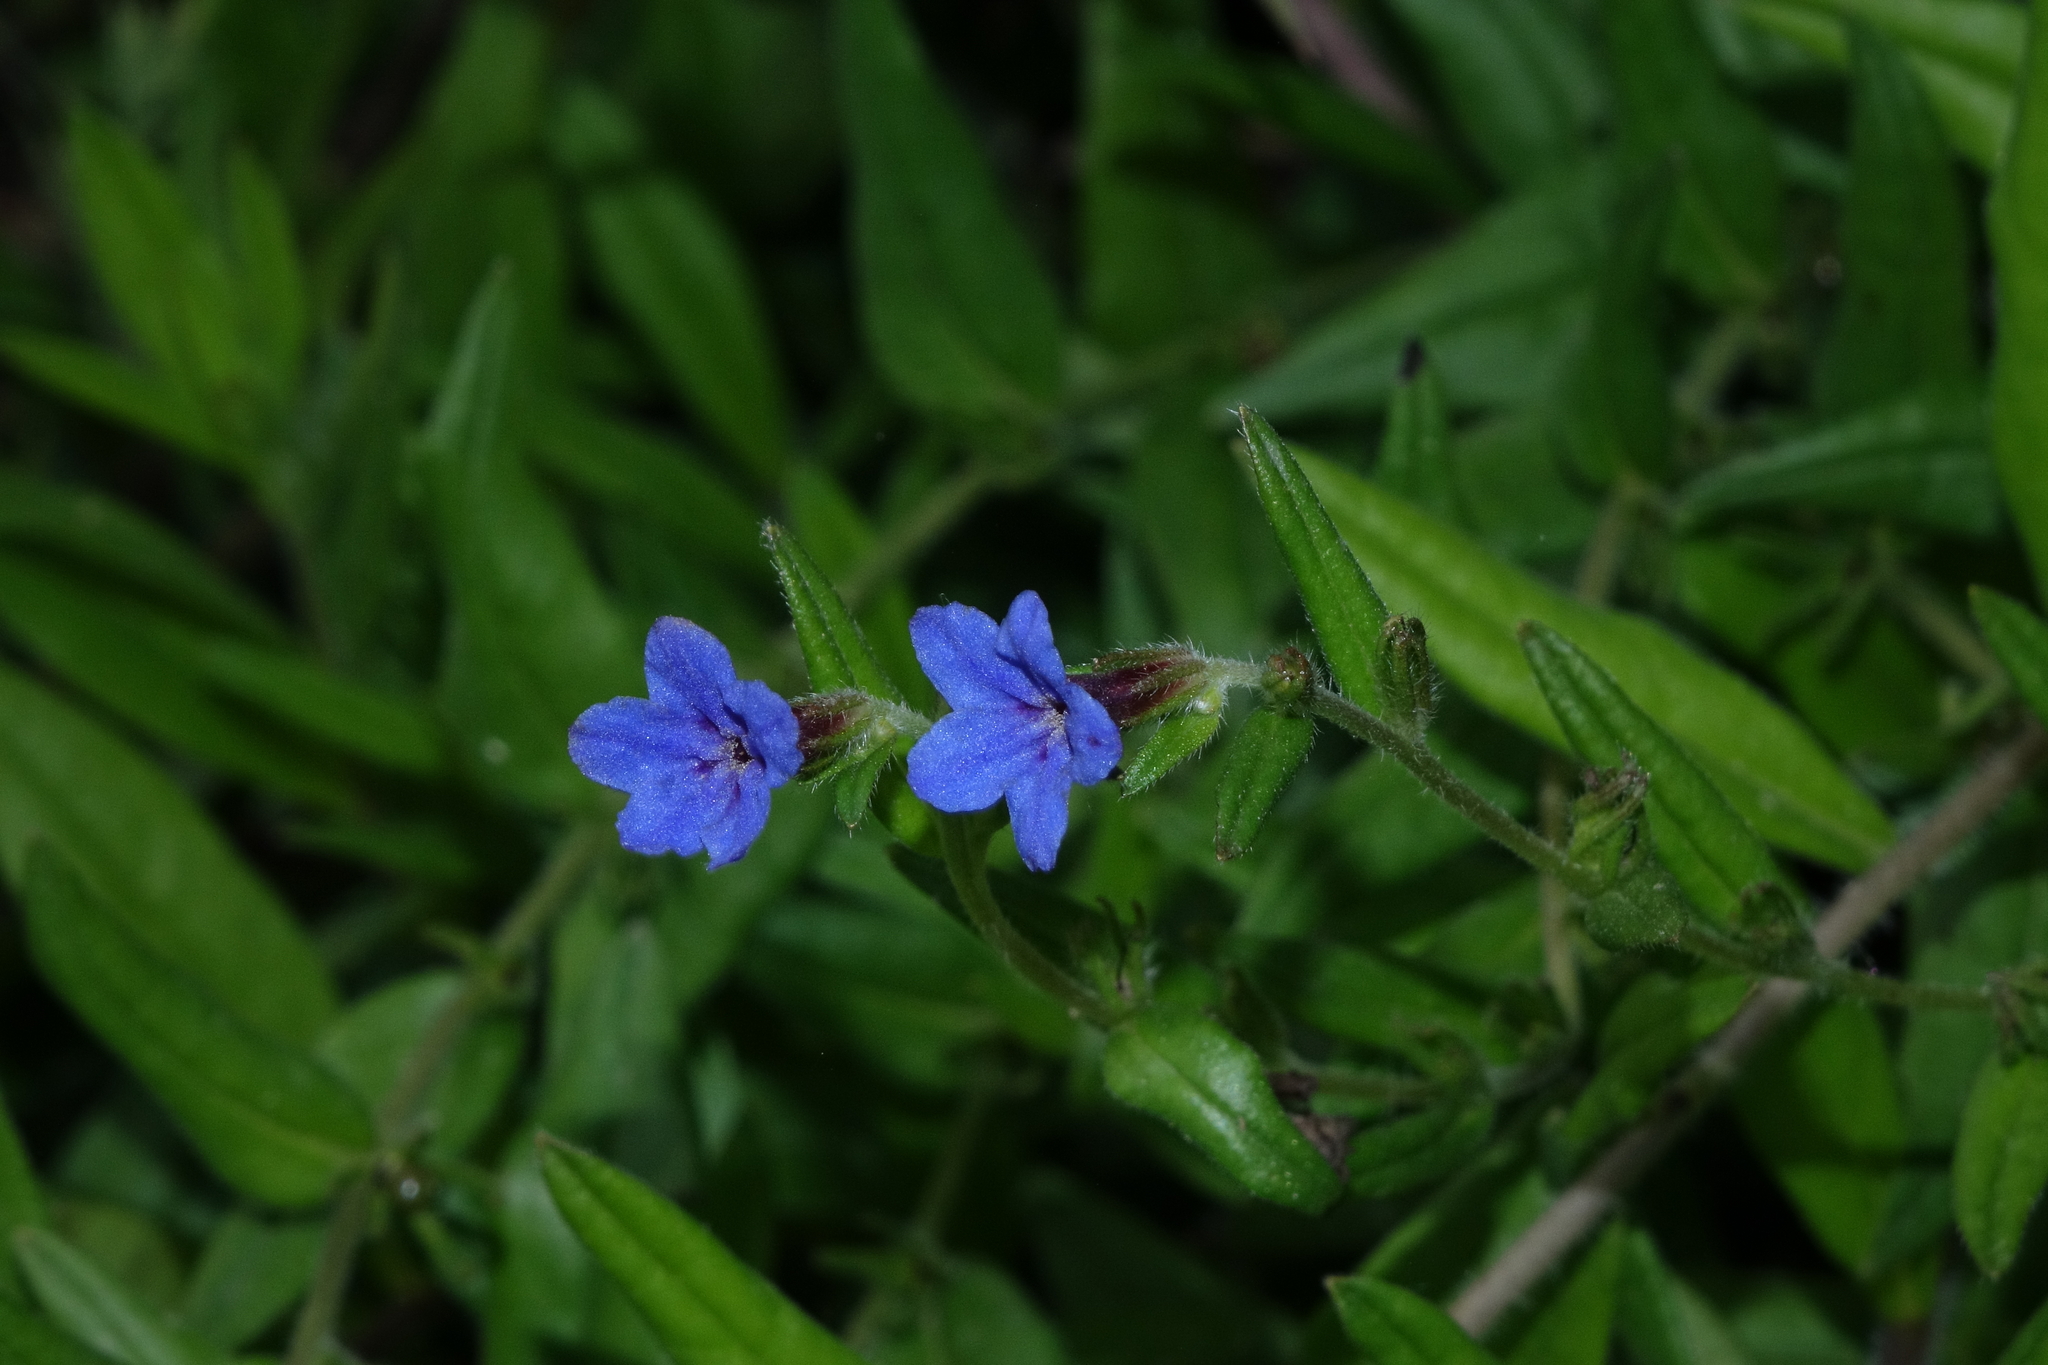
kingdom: Plantae
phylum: Tracheophyta
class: Magnoliopsida
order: Boraginales
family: Boraginaceae
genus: Aegonychon
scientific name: Aegonychon purpurocaeruleum
